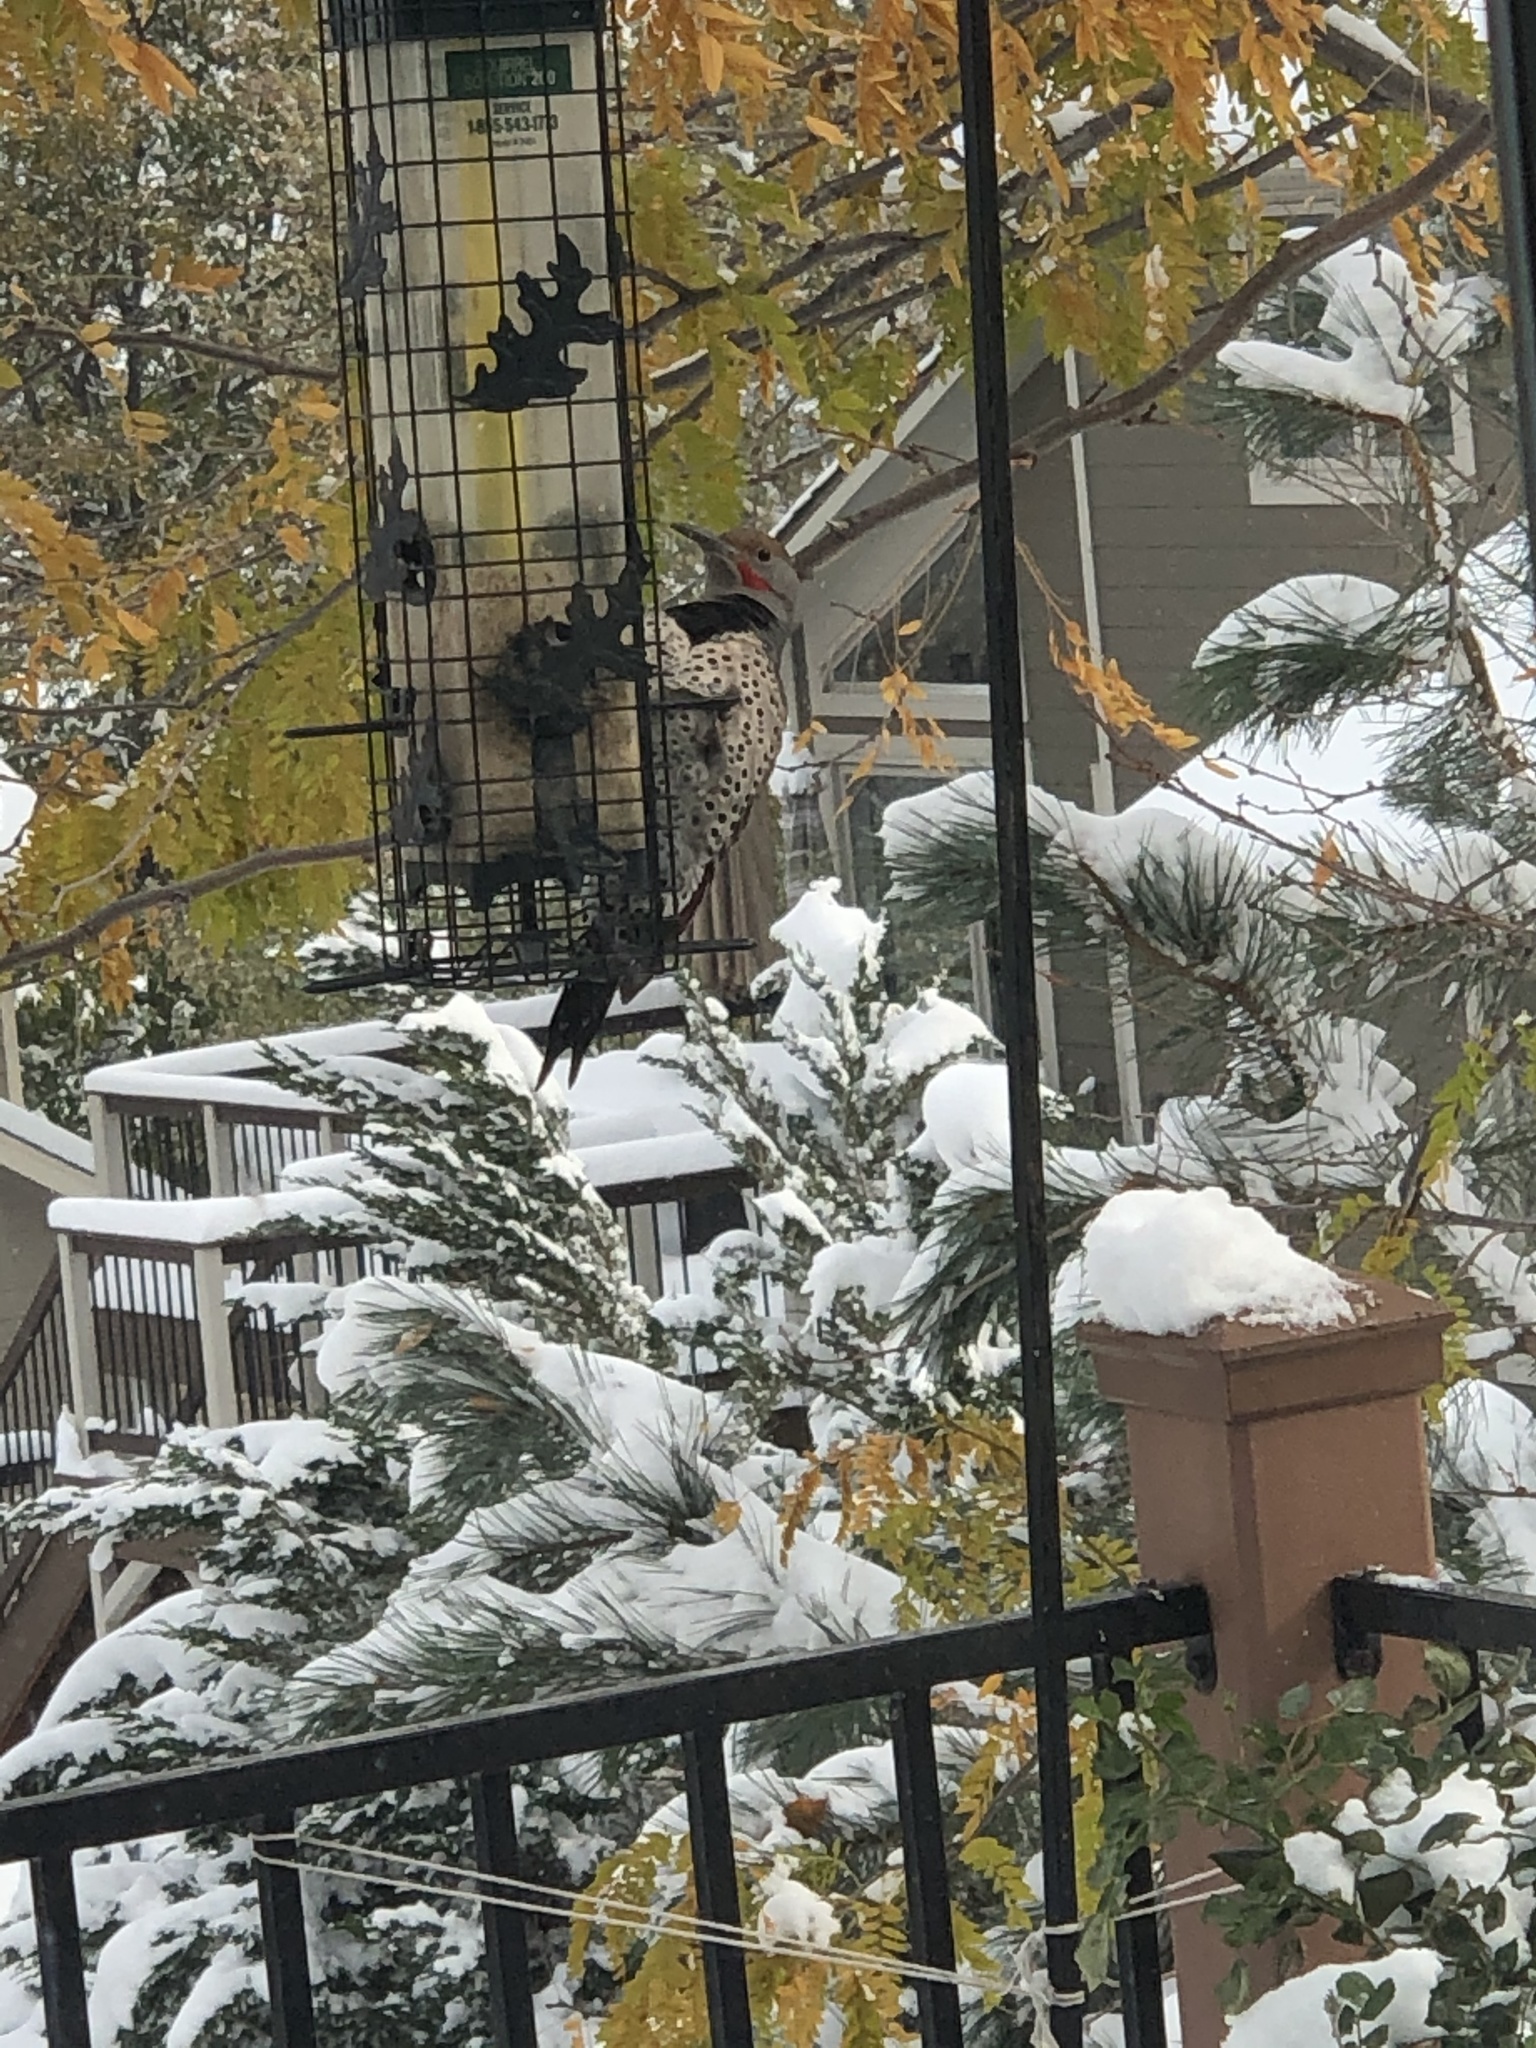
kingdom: Animalia
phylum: Chordata
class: Aves
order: Piciformes
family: Picidae
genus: Colaptes
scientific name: Colaptes auratus
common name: Northern flicker
